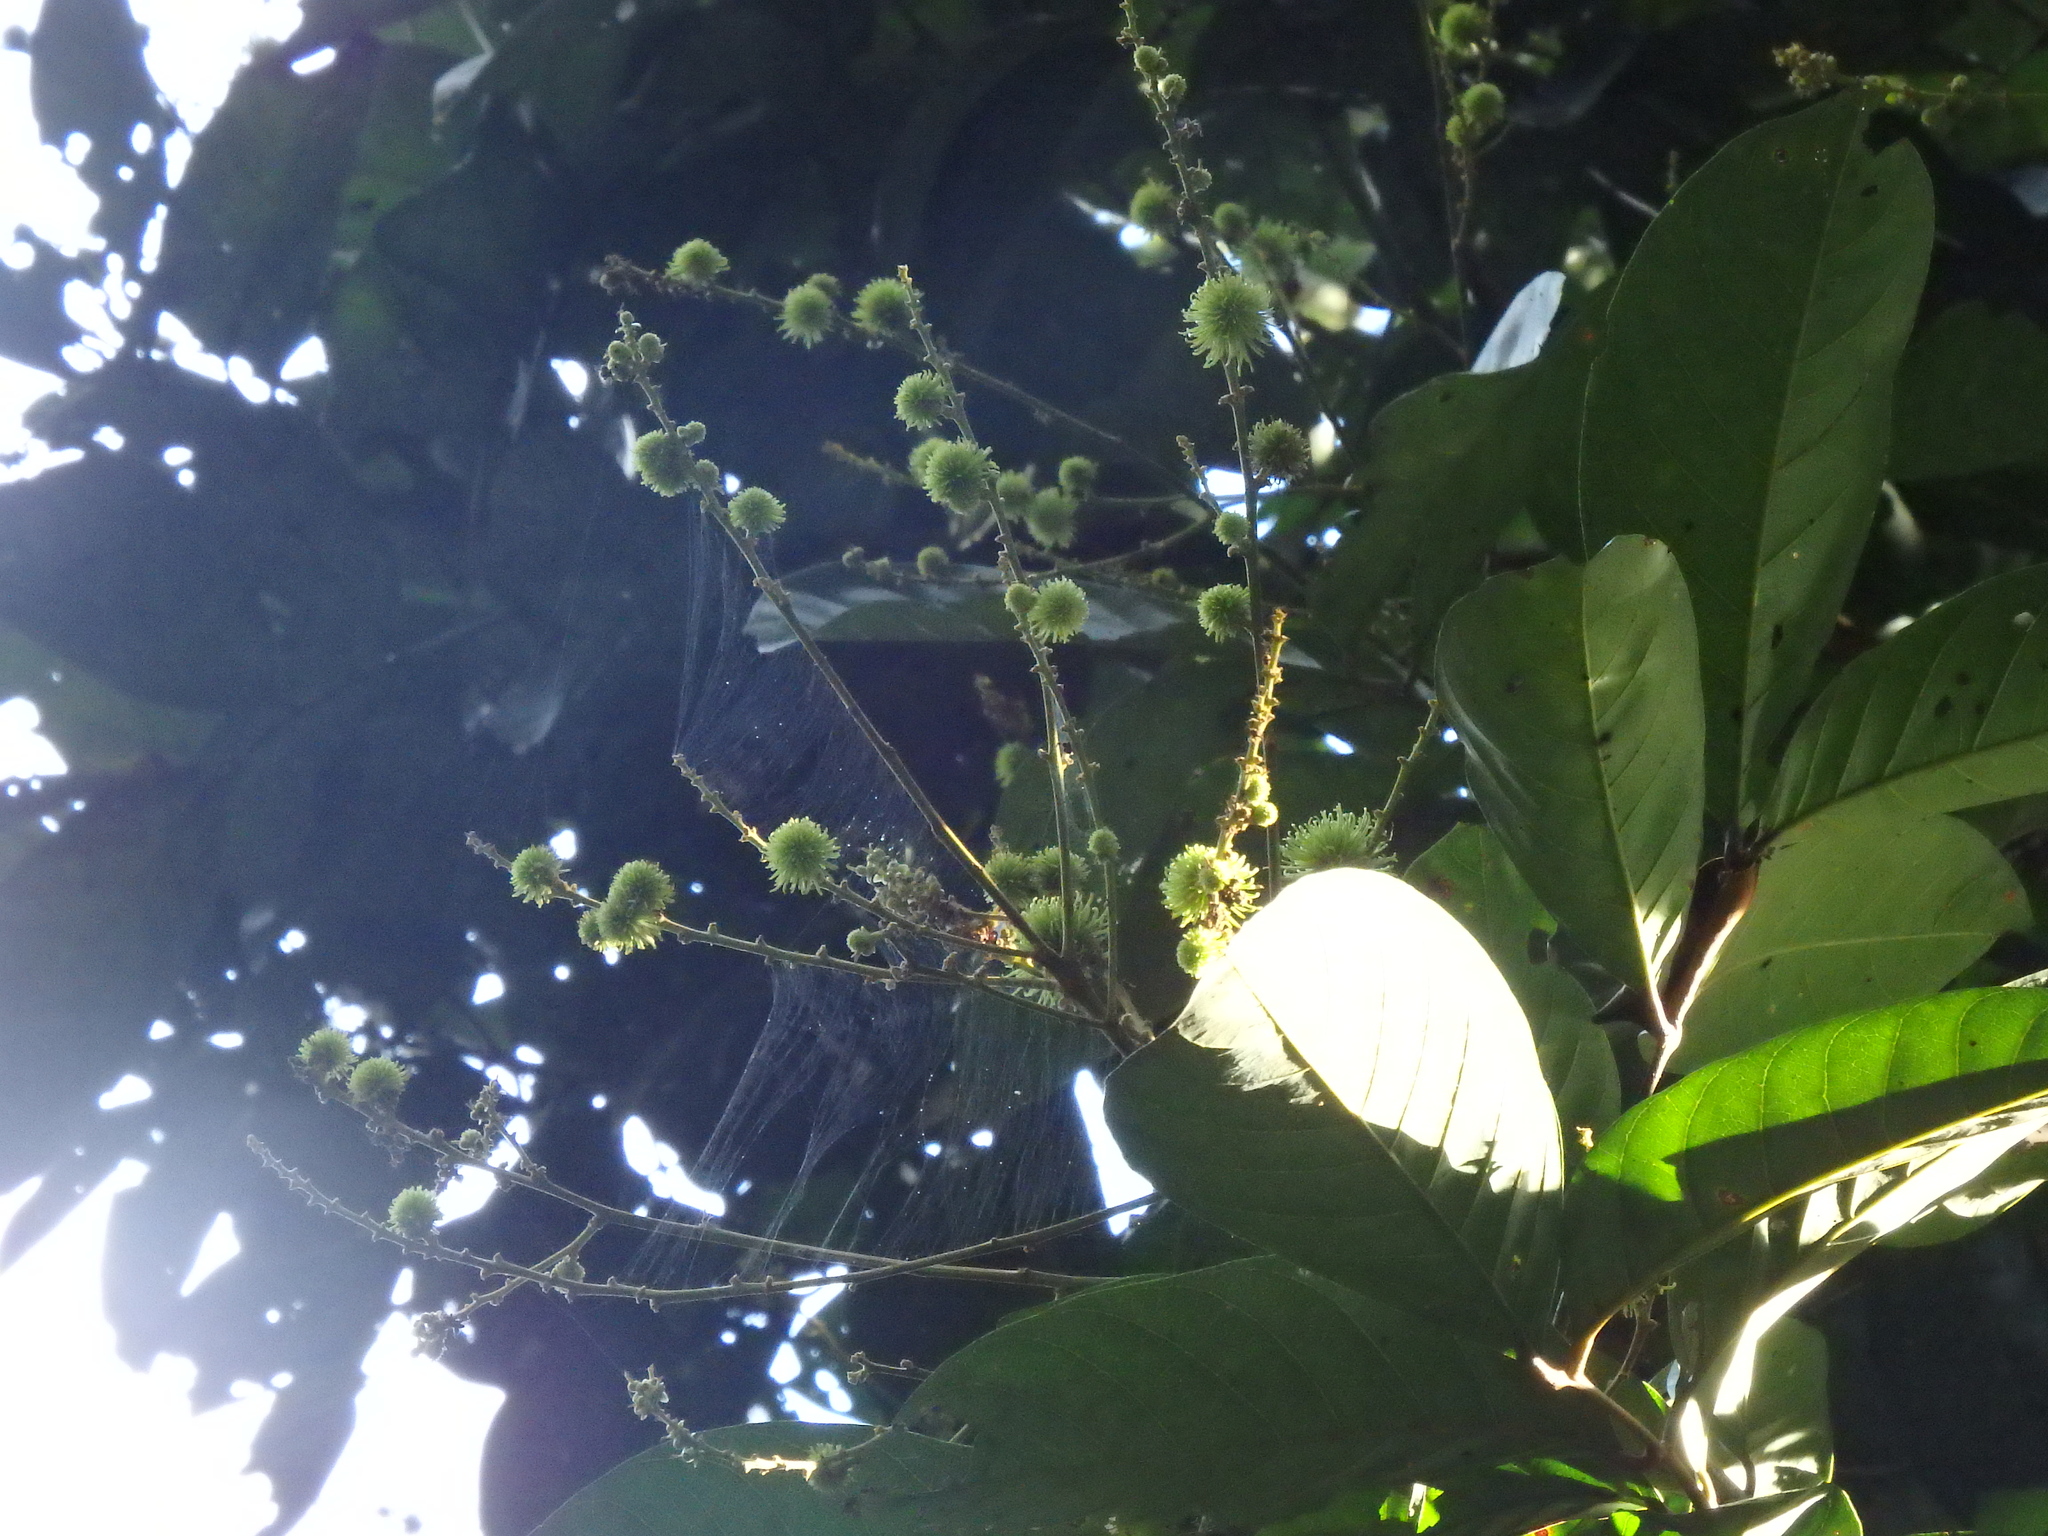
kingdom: Plantae
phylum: Tracheophyta
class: Magnoliopsida
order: Sapindales
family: Sapindaceae
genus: Nephelium
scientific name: Nephelium lappaceum
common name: Rambutan
